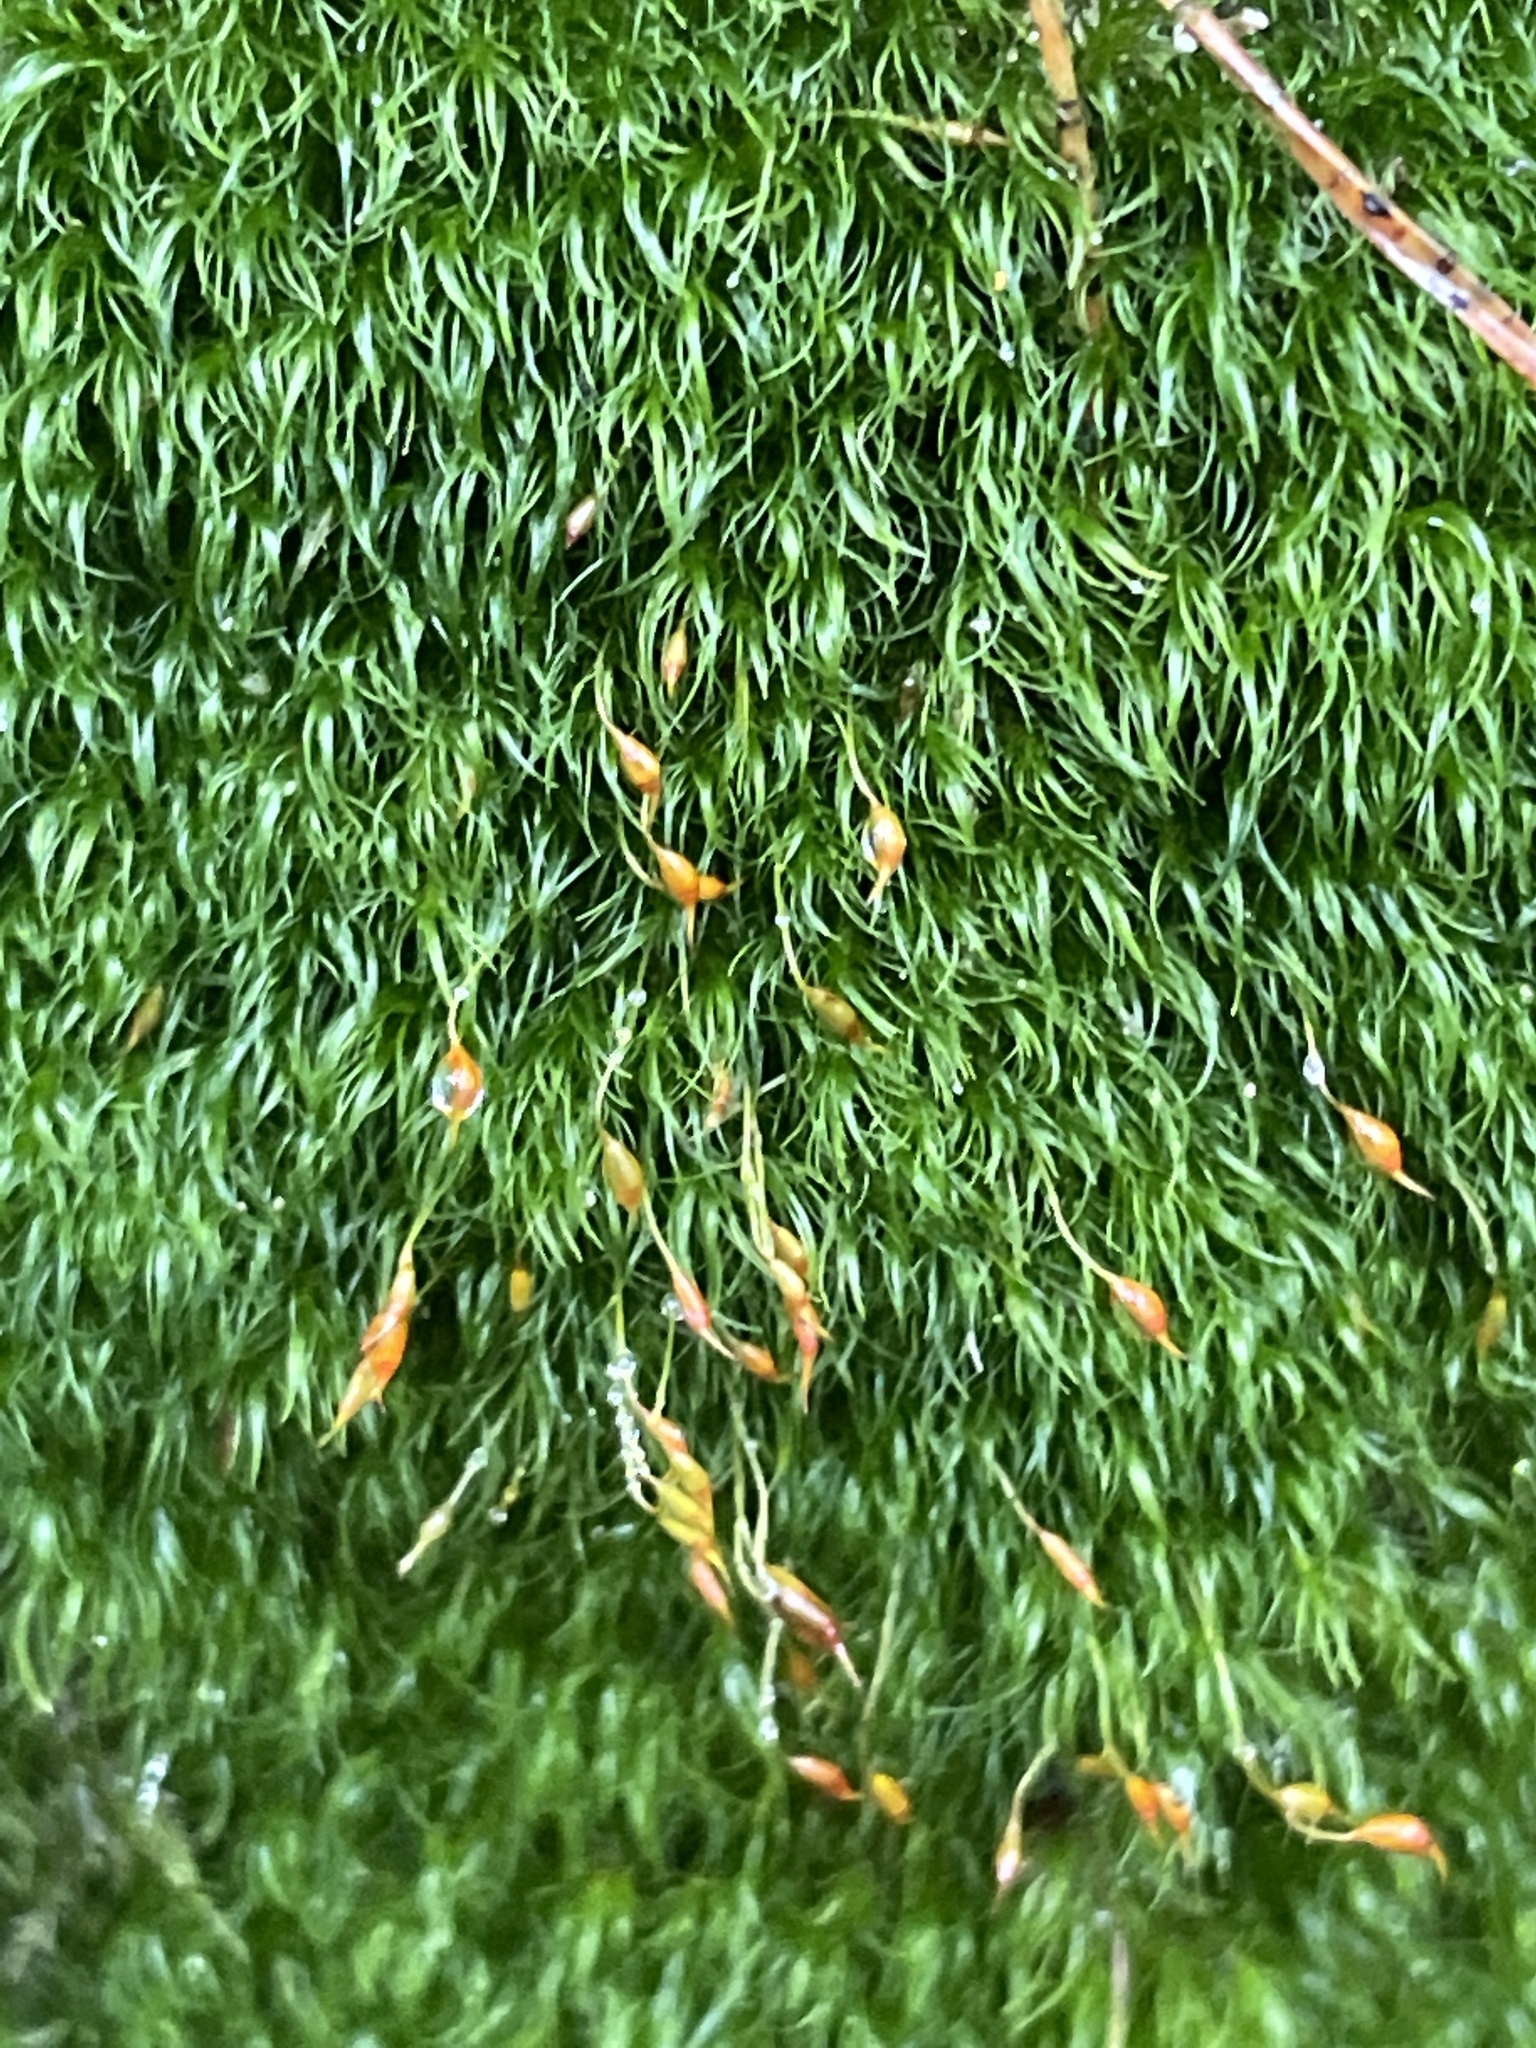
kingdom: Plantae
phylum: Bryophyta
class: Bryopsida
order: Dicranales
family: Dicranellaceae
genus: Dicranella
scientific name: Dicranella heteromalla
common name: Silky forklet moss
